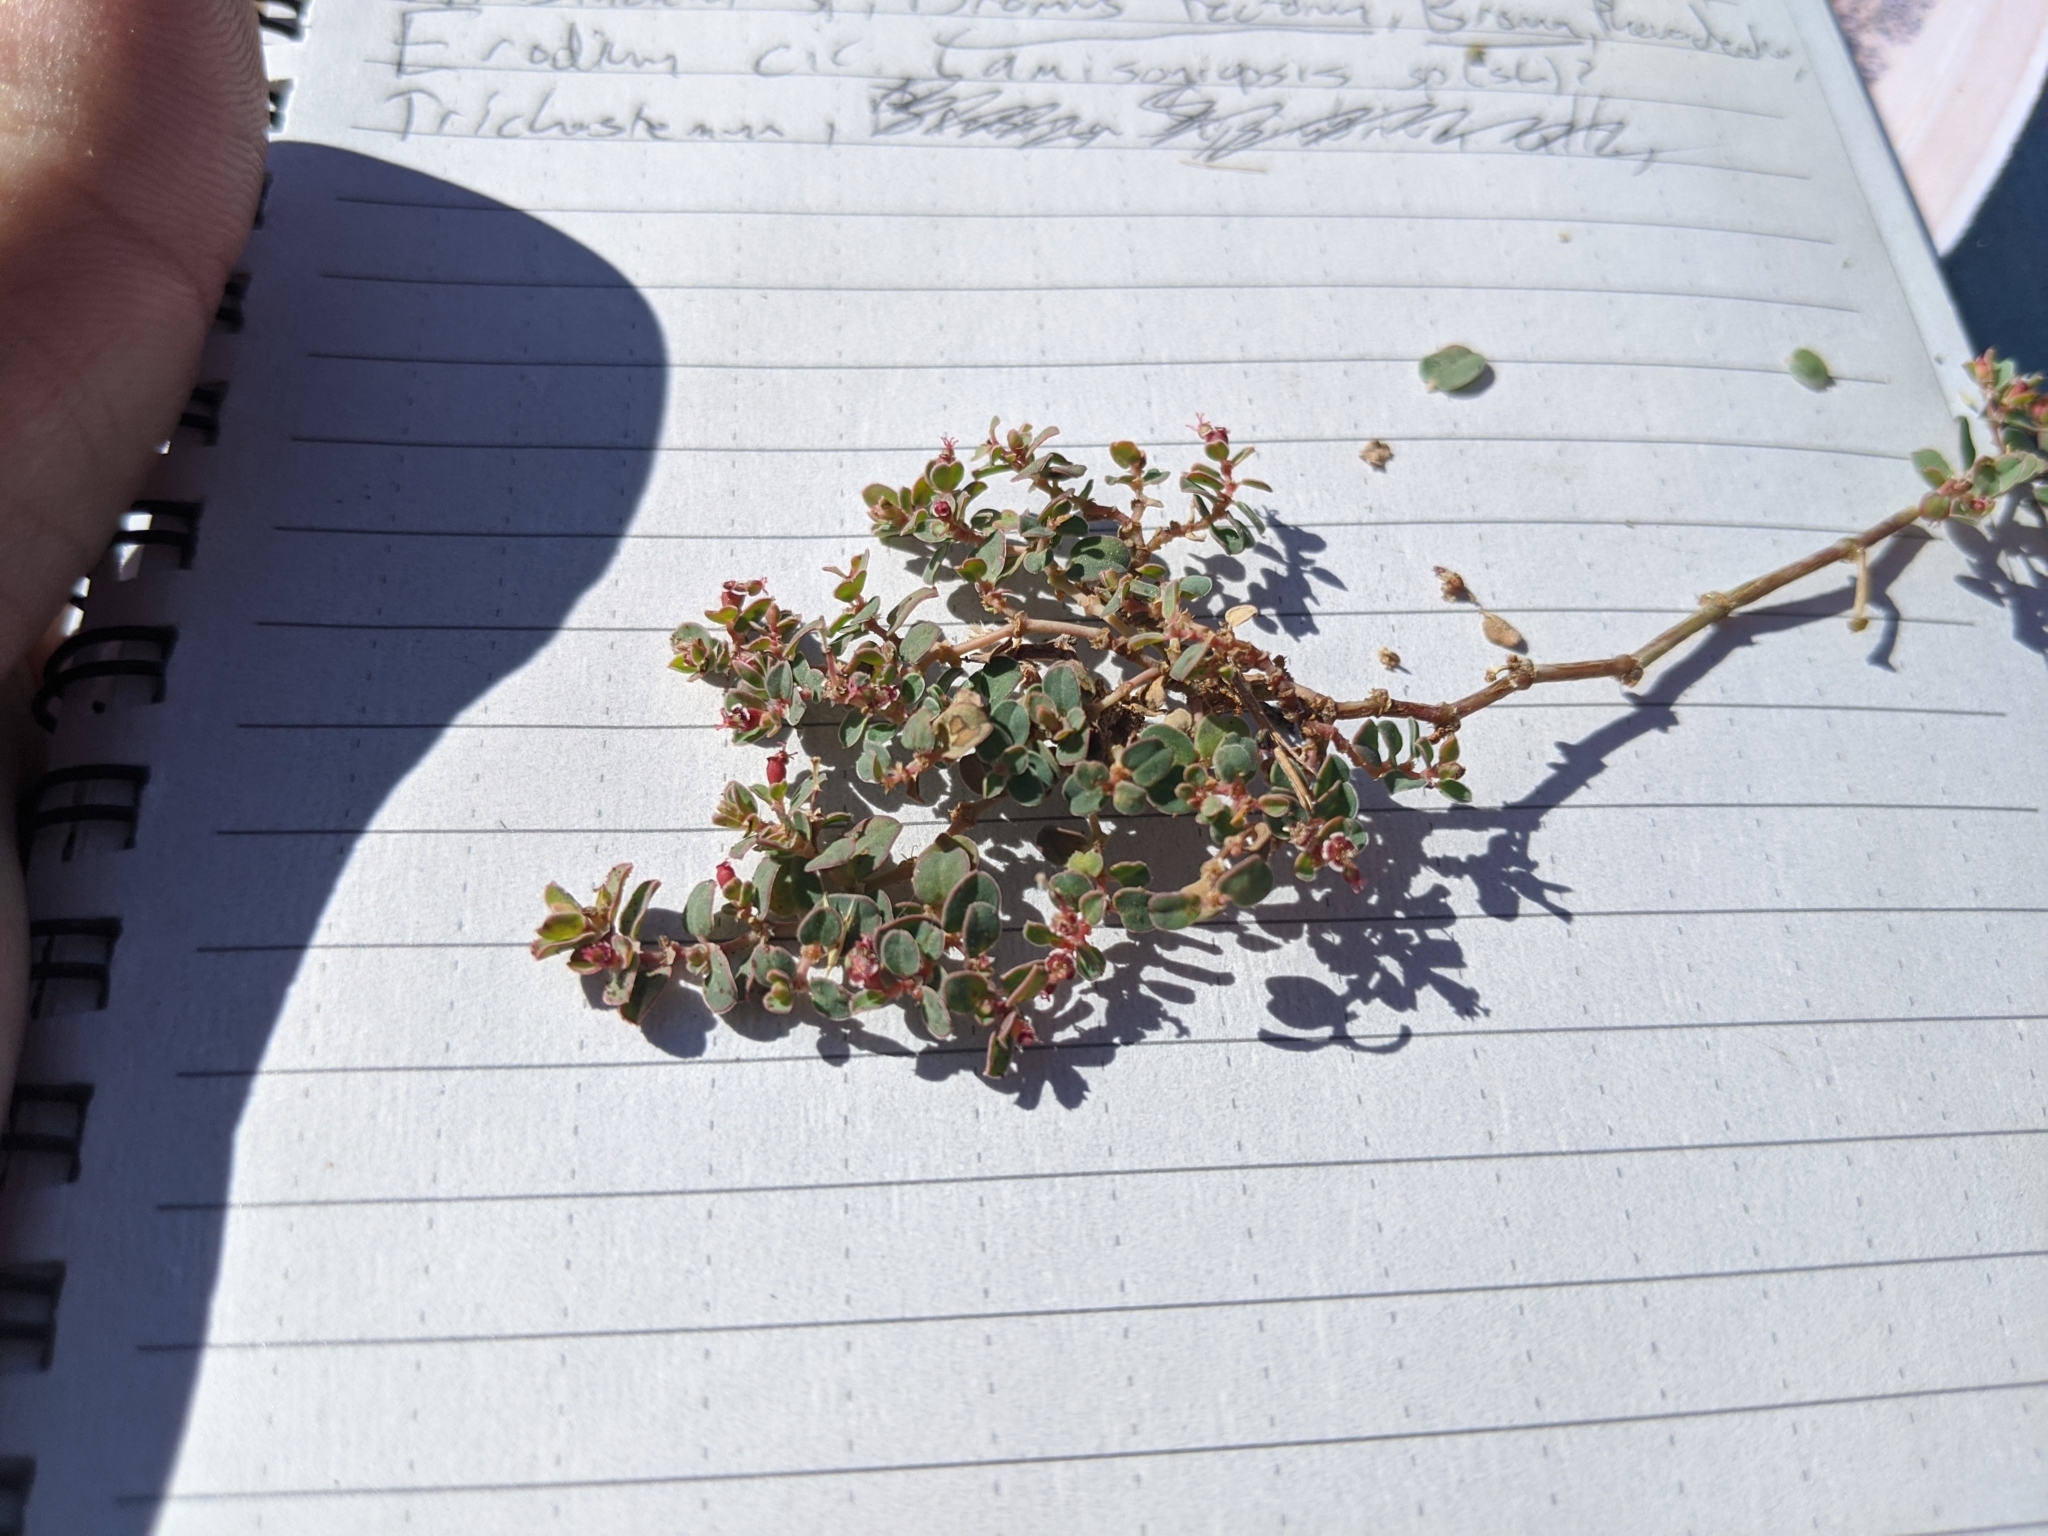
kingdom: Plantae
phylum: Tracheophyta
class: Magnoliopsida
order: Malpighiales
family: Euphorbiaceae
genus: Euphorbia
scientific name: Euphorbia albomarginata
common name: Whitemargin sandmat
